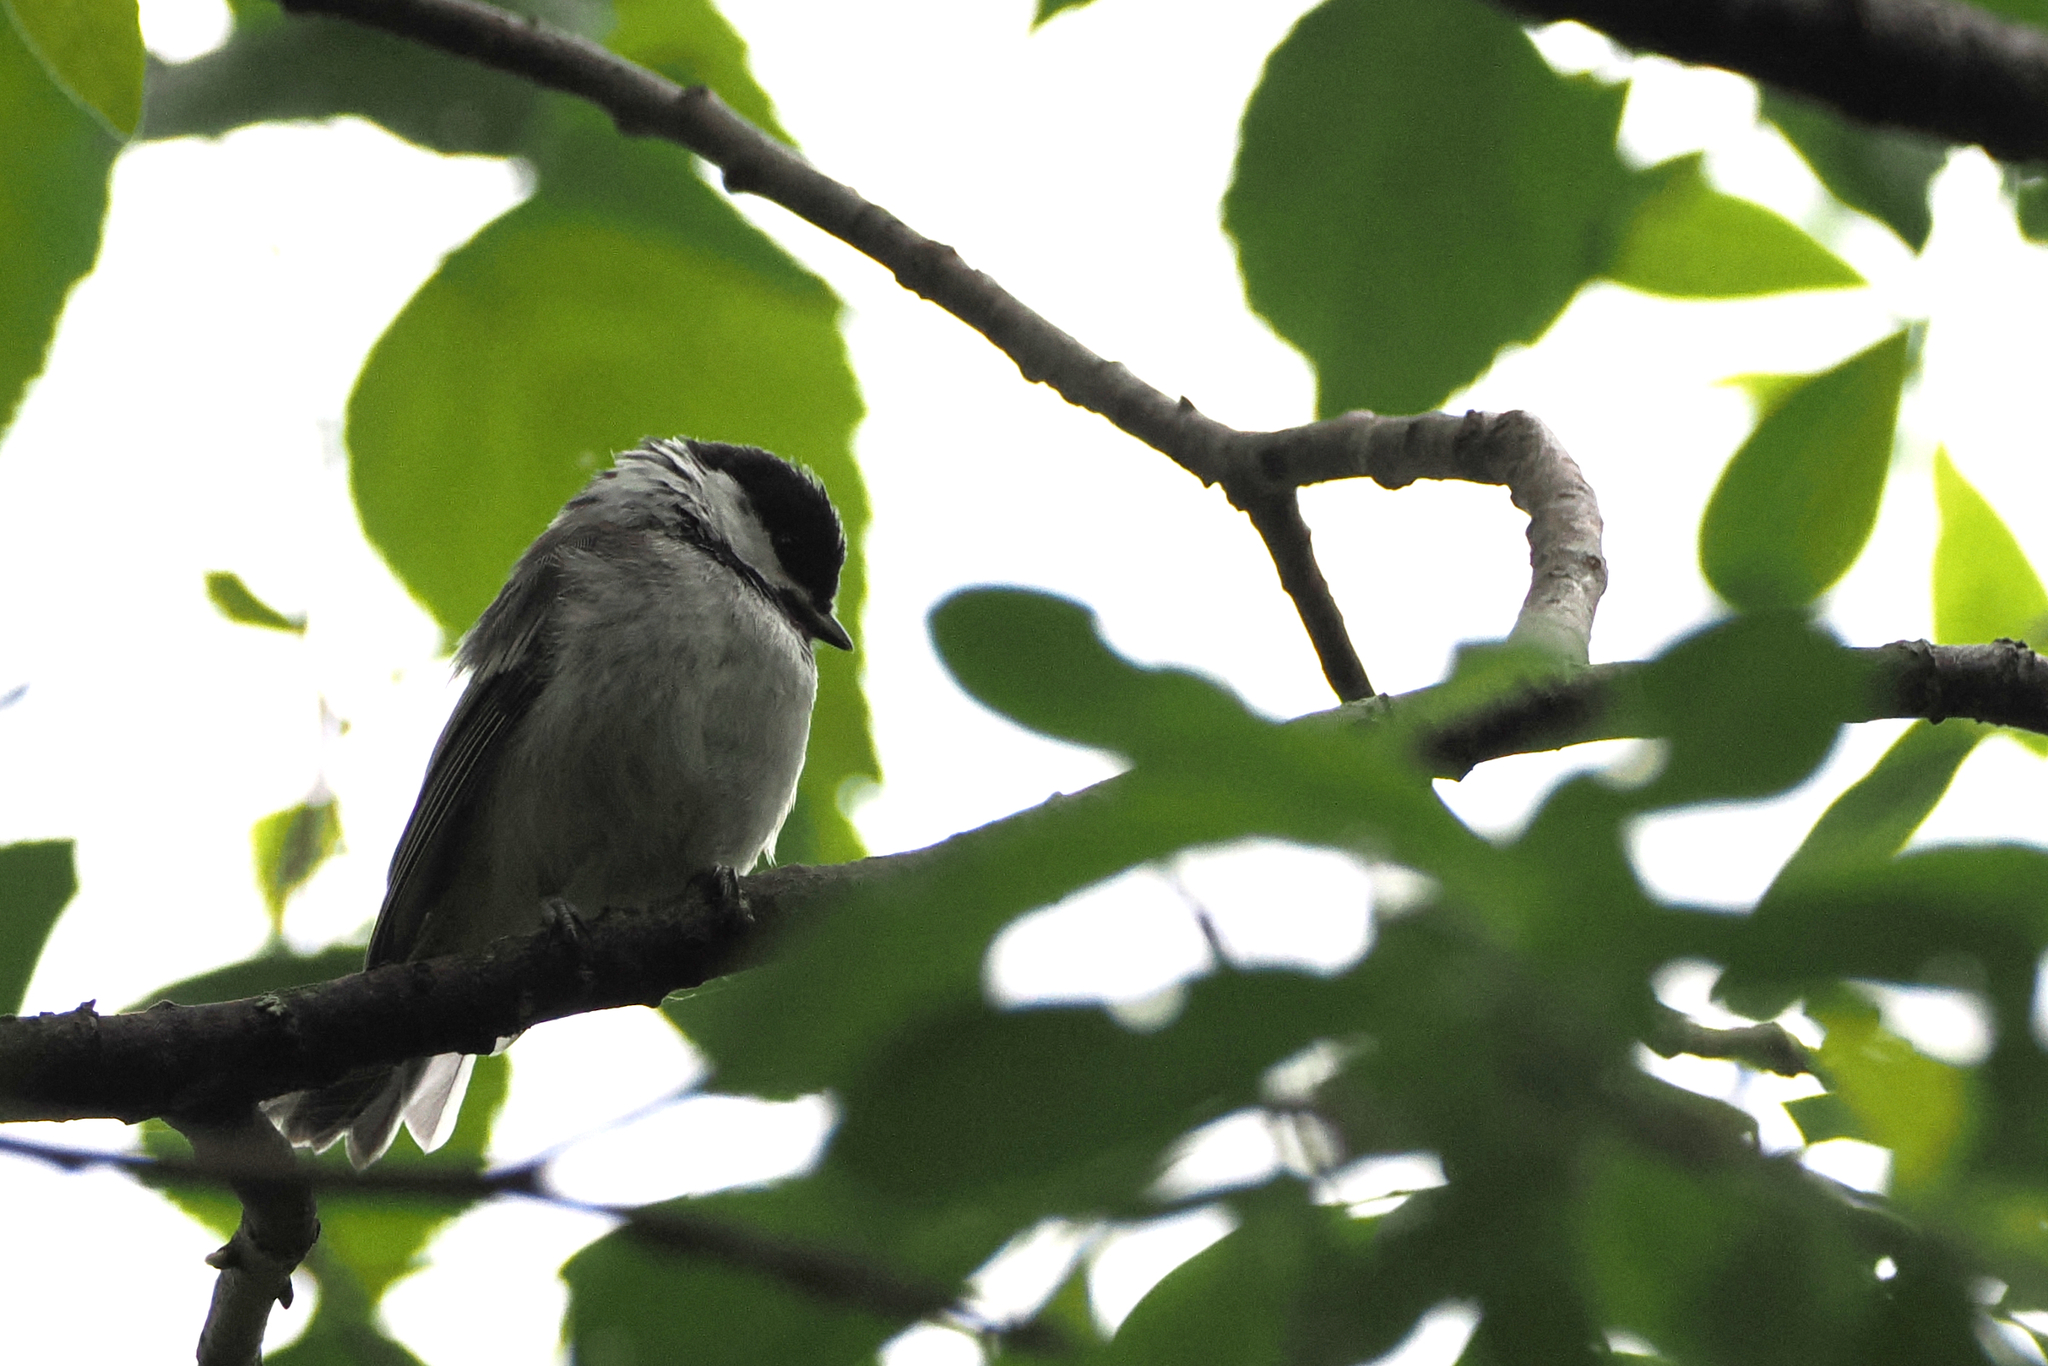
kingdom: Animalia
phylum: Chordata
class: Aves
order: Passeriformes
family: Paridae
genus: Poecile
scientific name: Poecile atricapillus
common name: Black-capped chickadee
